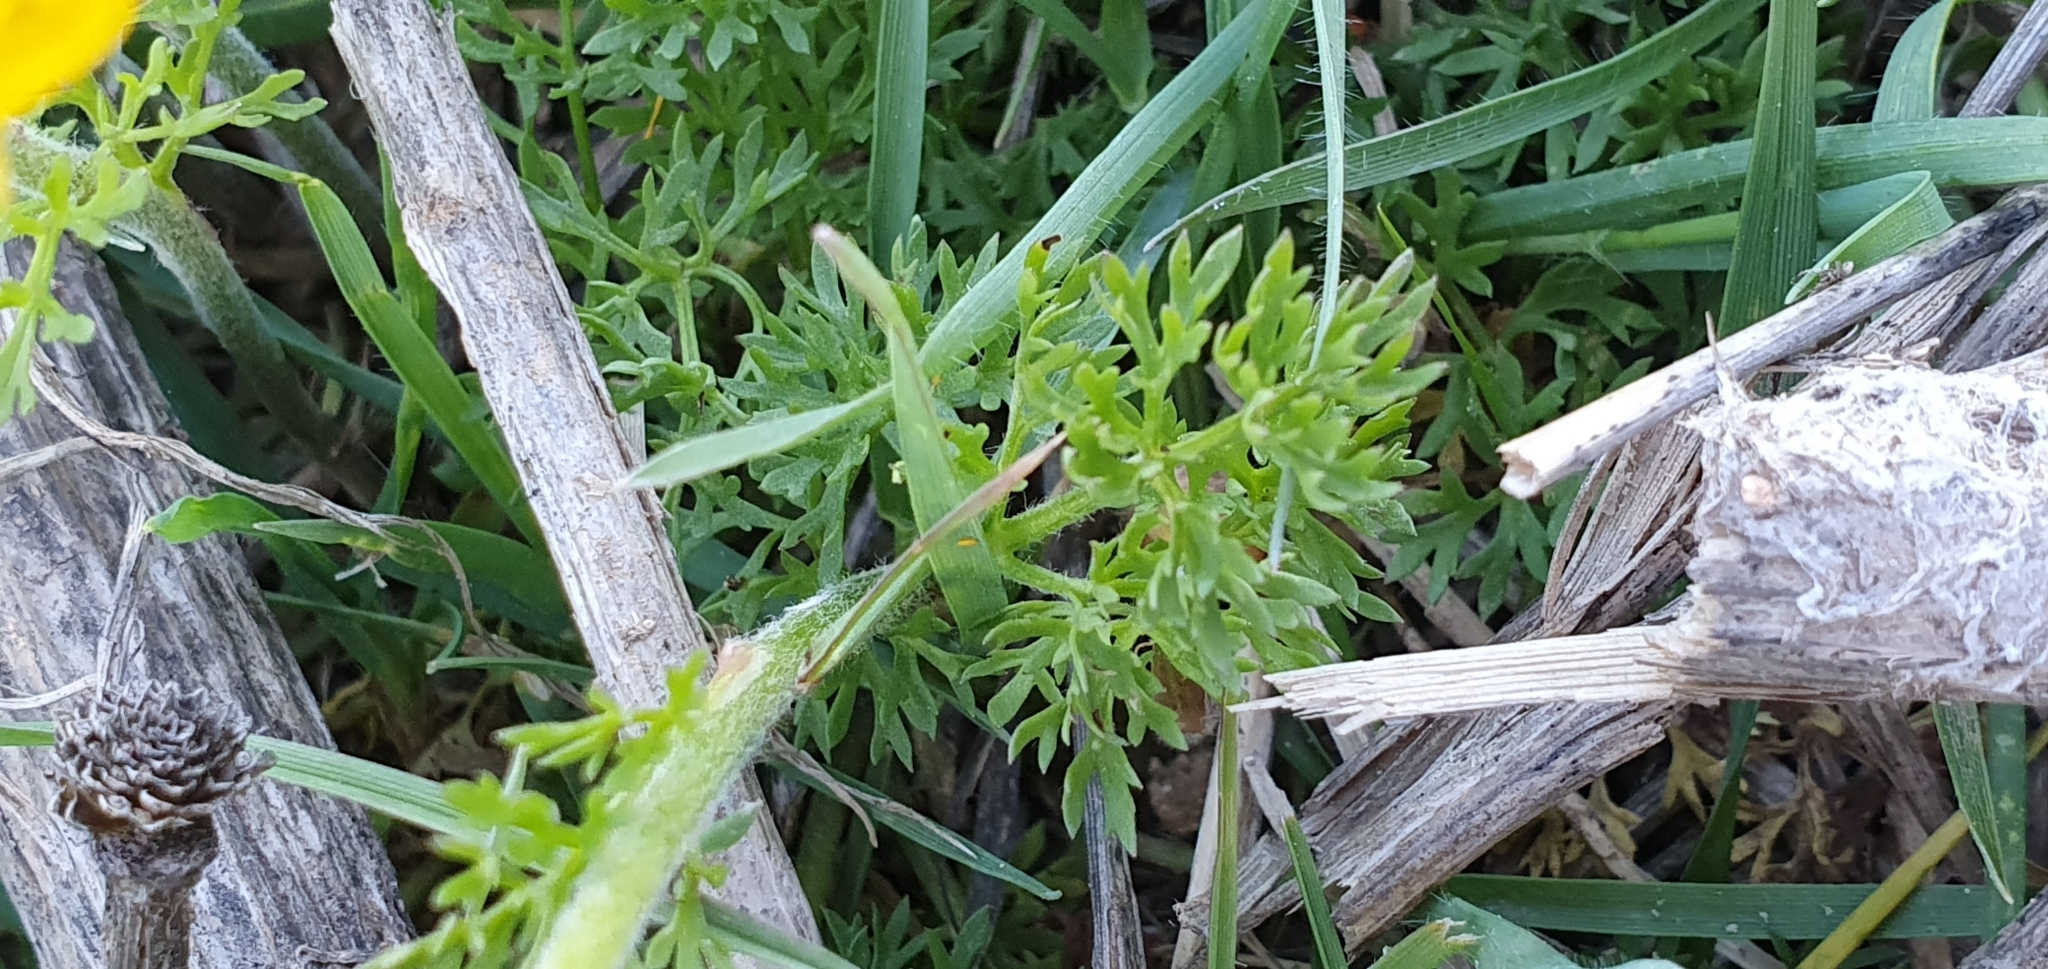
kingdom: Plantae
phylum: Tracheophyta
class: Magnoliopsida
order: Ranunculales
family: Ranunculaceae
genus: Ranunculus
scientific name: Ranunculus millefoliatus
